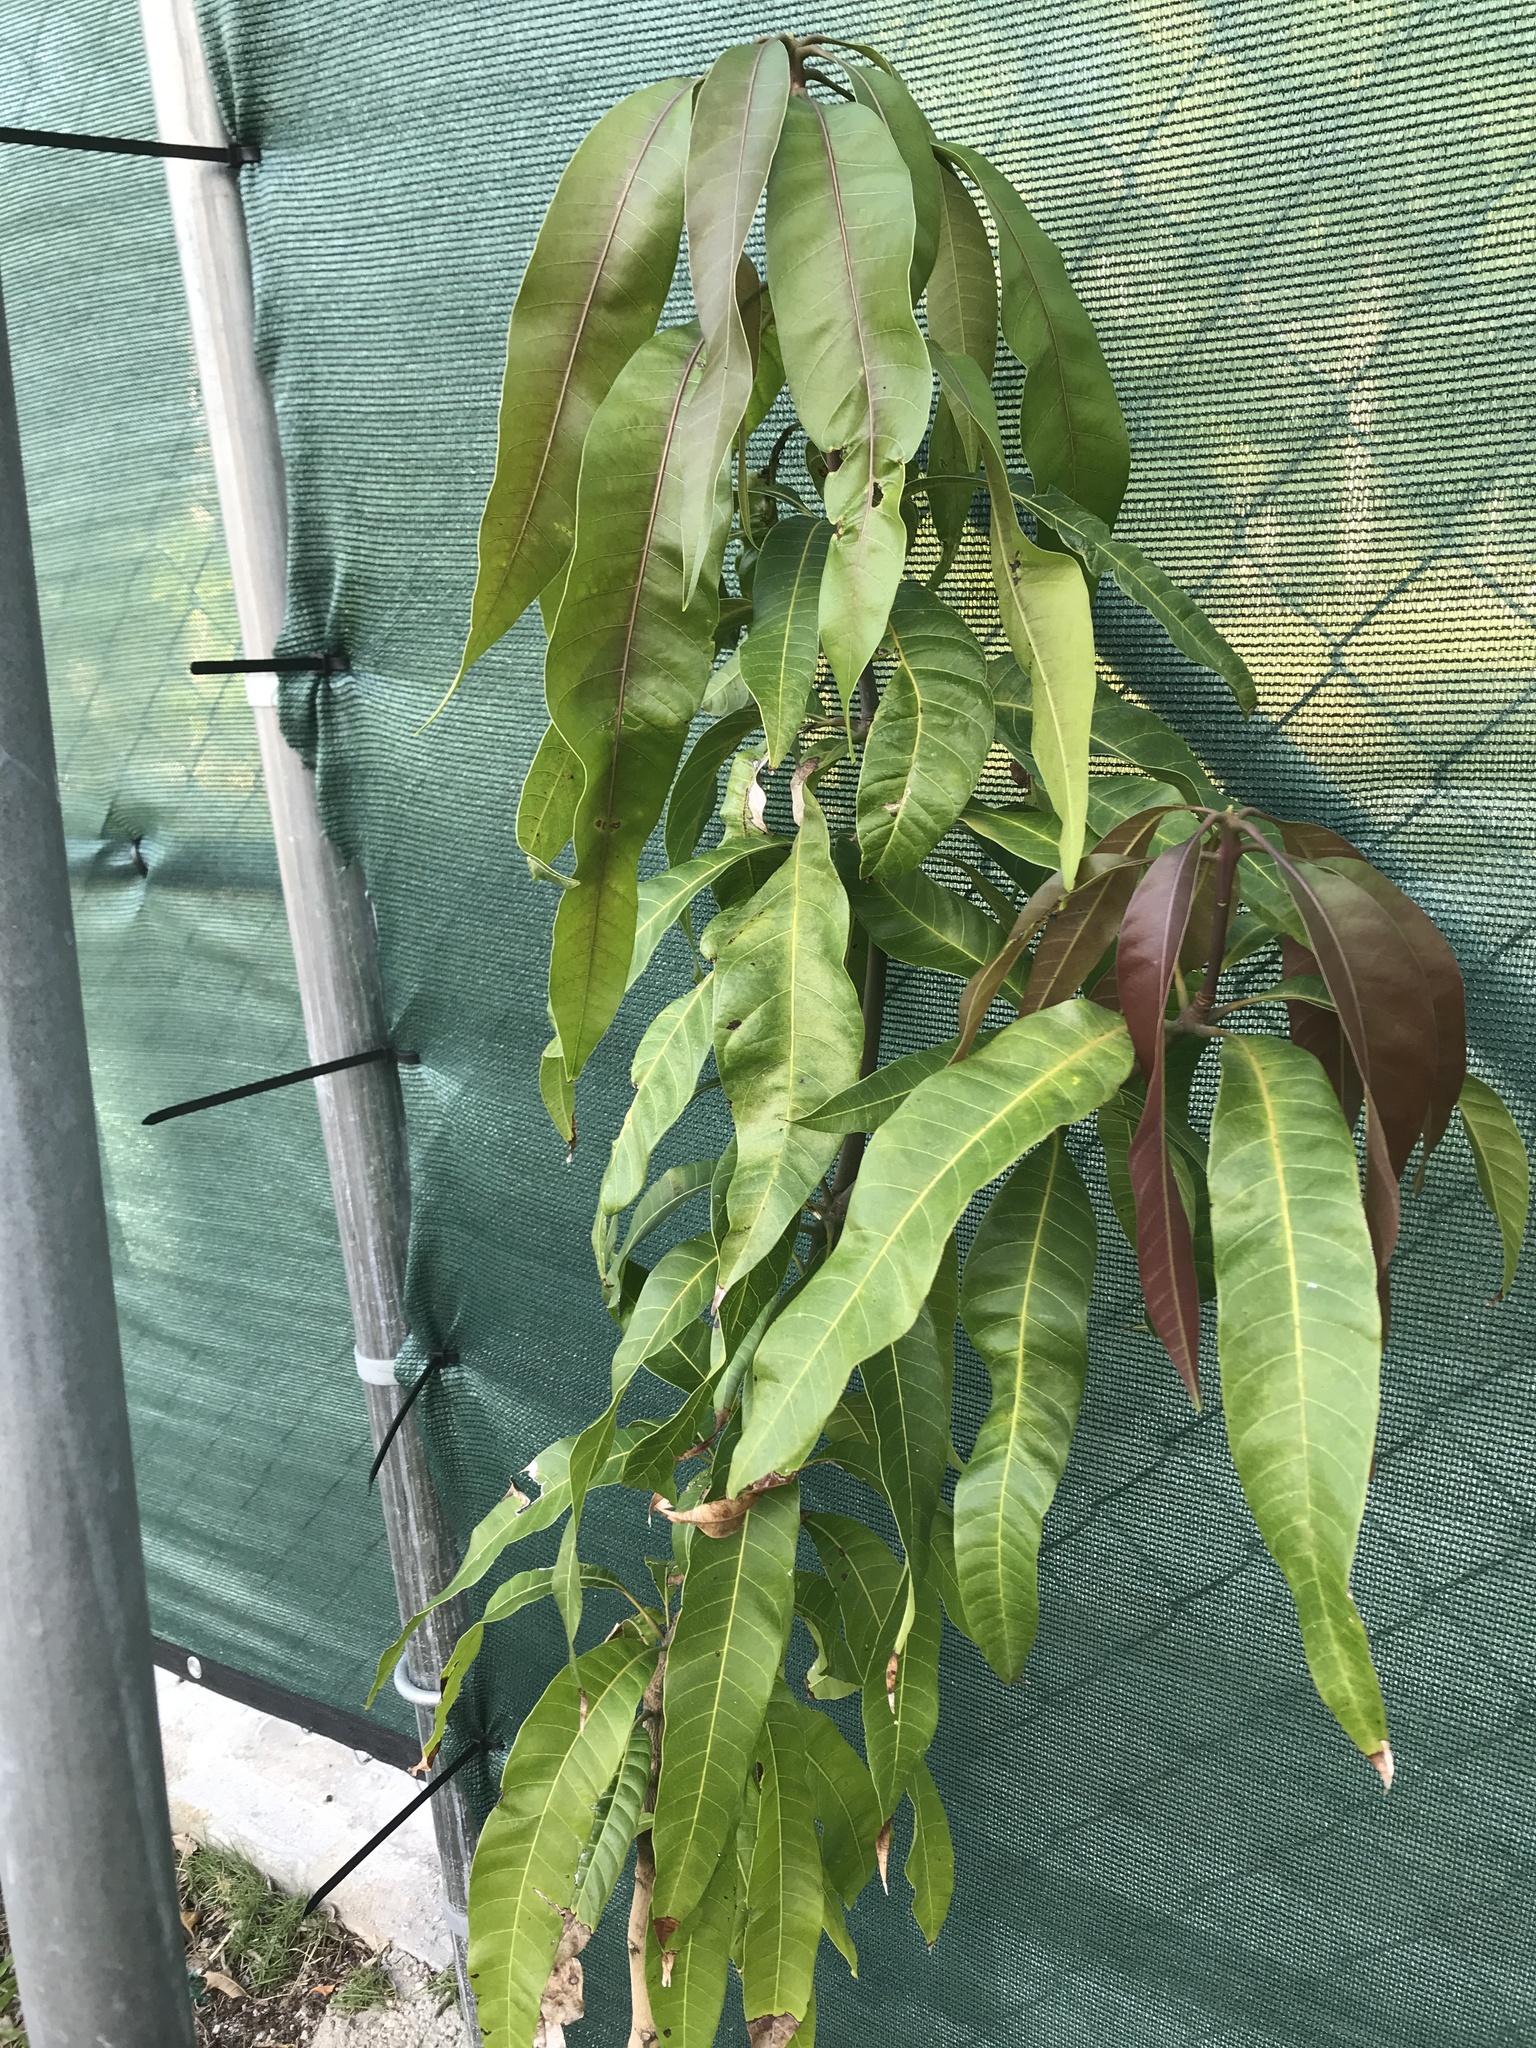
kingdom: Plantae
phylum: Tracheophyta
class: Magnoliopsida
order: Sapindales
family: Anacardiaceae
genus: Mangifera
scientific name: Mangifera indica
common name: Mango
